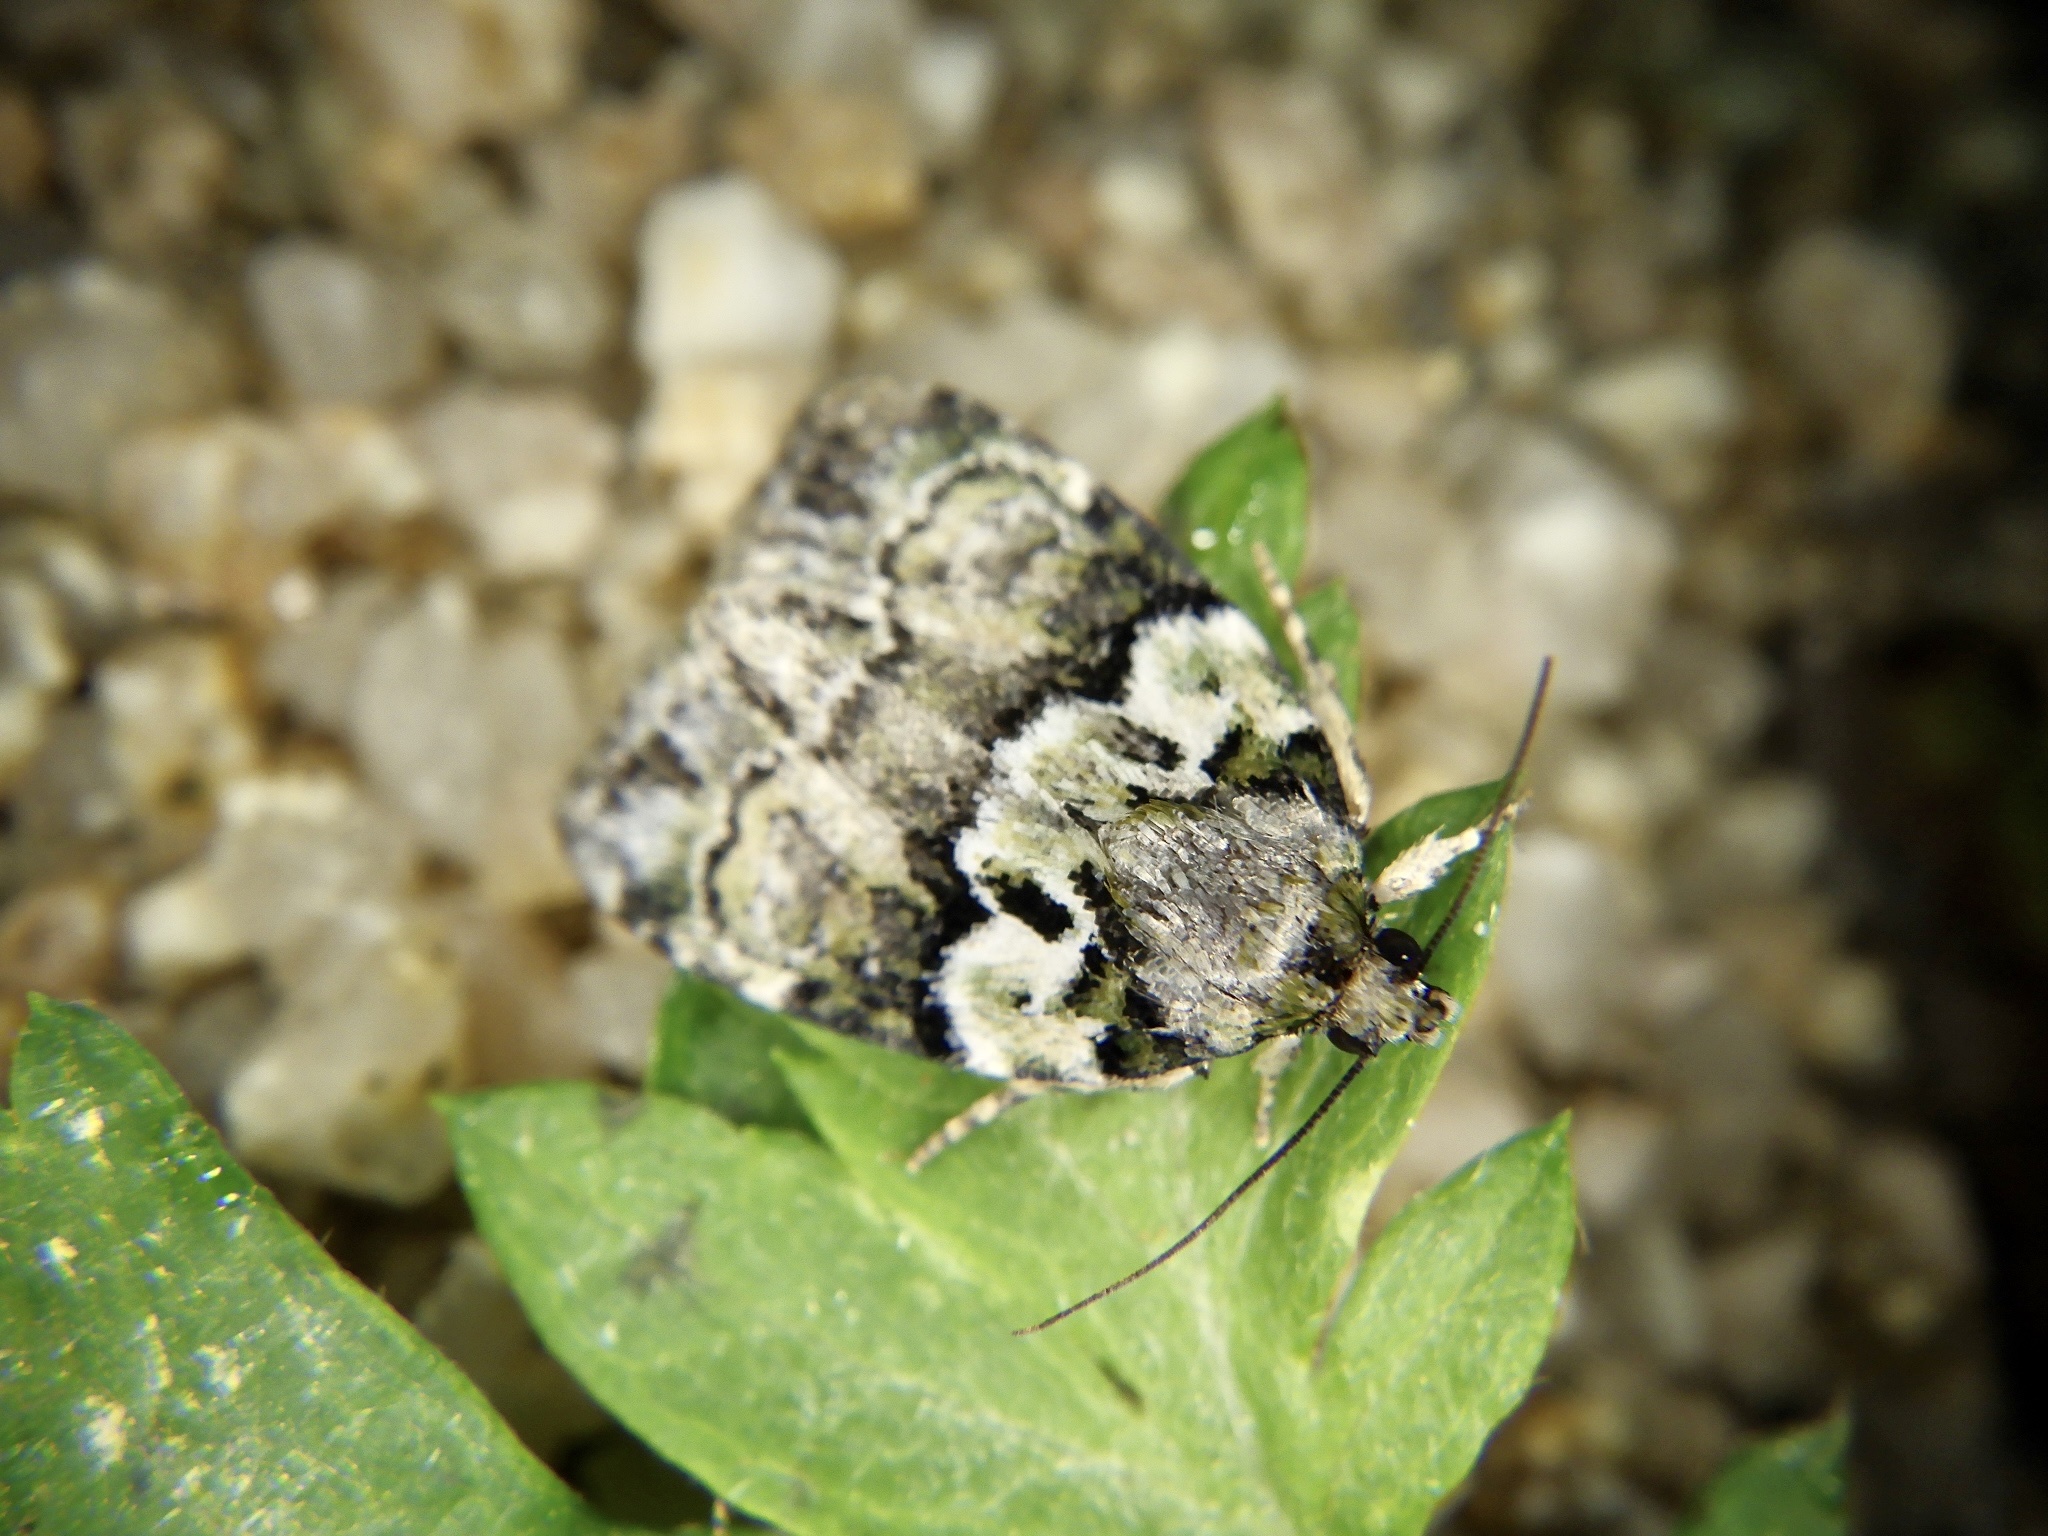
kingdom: Animalia
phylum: Arthropoda
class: Insecta
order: Lepidoptera
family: Noctuidae
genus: Cryphia
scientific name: Cryphia griseola
